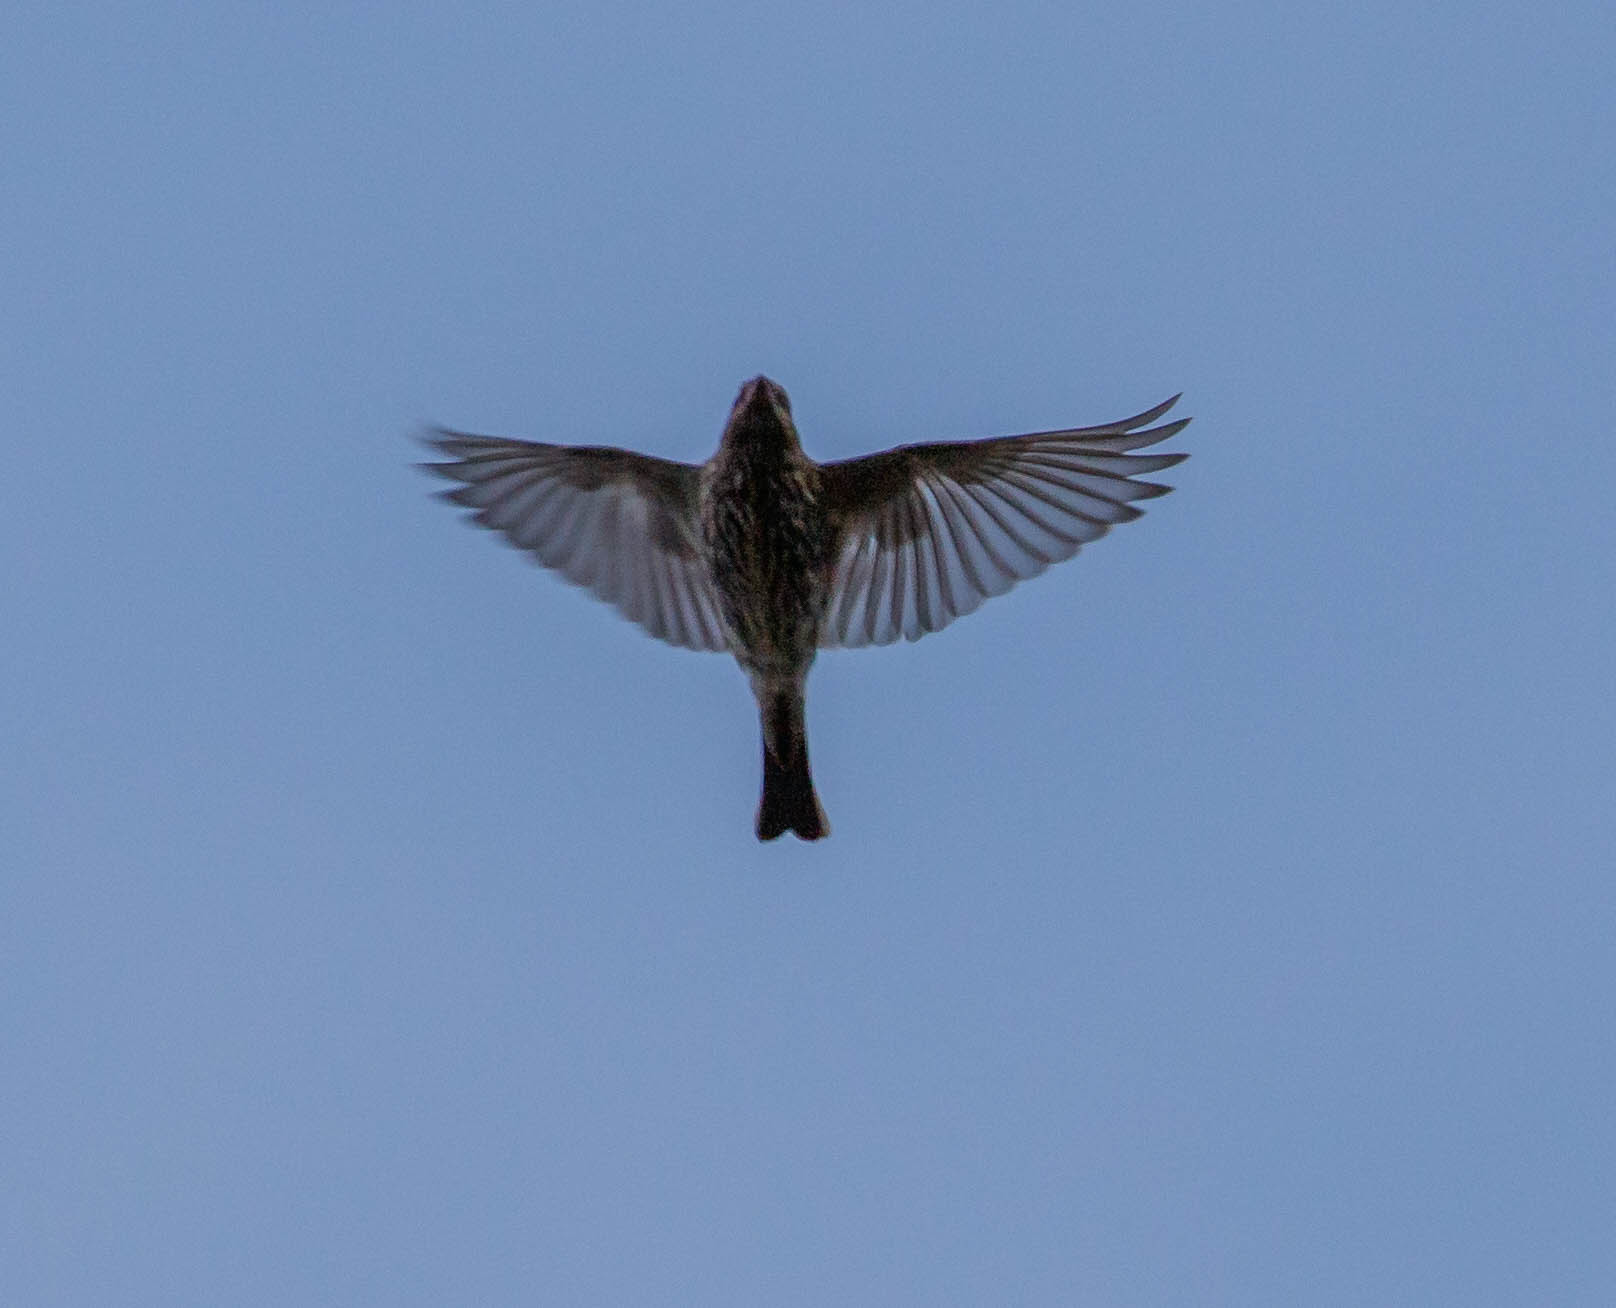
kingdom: Animalia
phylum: Chordata
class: Aves
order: Passeriformes
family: Fringillidae
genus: Haemorhous
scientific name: Haemorhous mexicanus
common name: House finch
